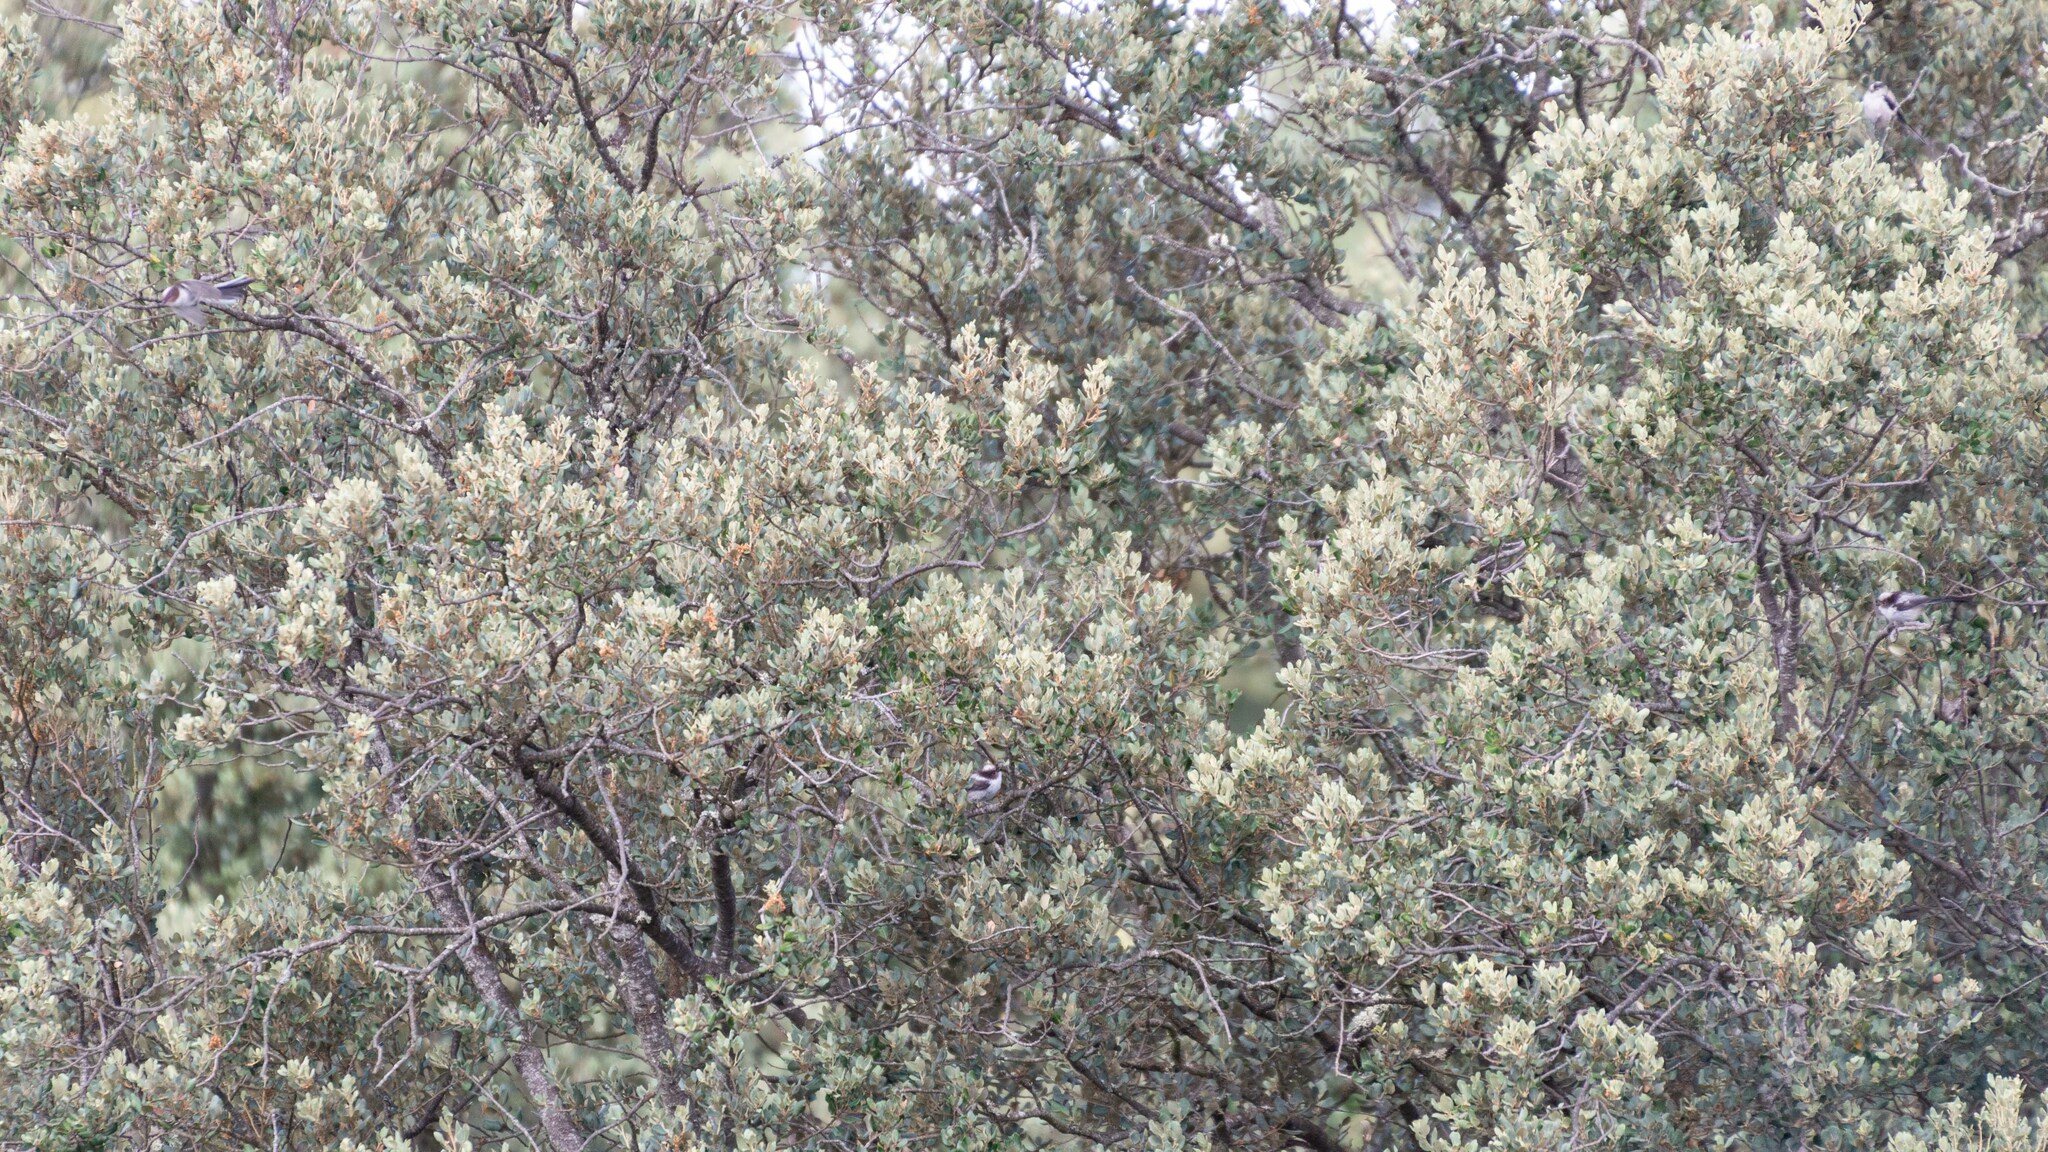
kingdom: Animalia
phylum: Chordata
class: Aves
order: Passeriformes
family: Aegithalidae
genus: Aegithalos
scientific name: Aegithalos caudatus
